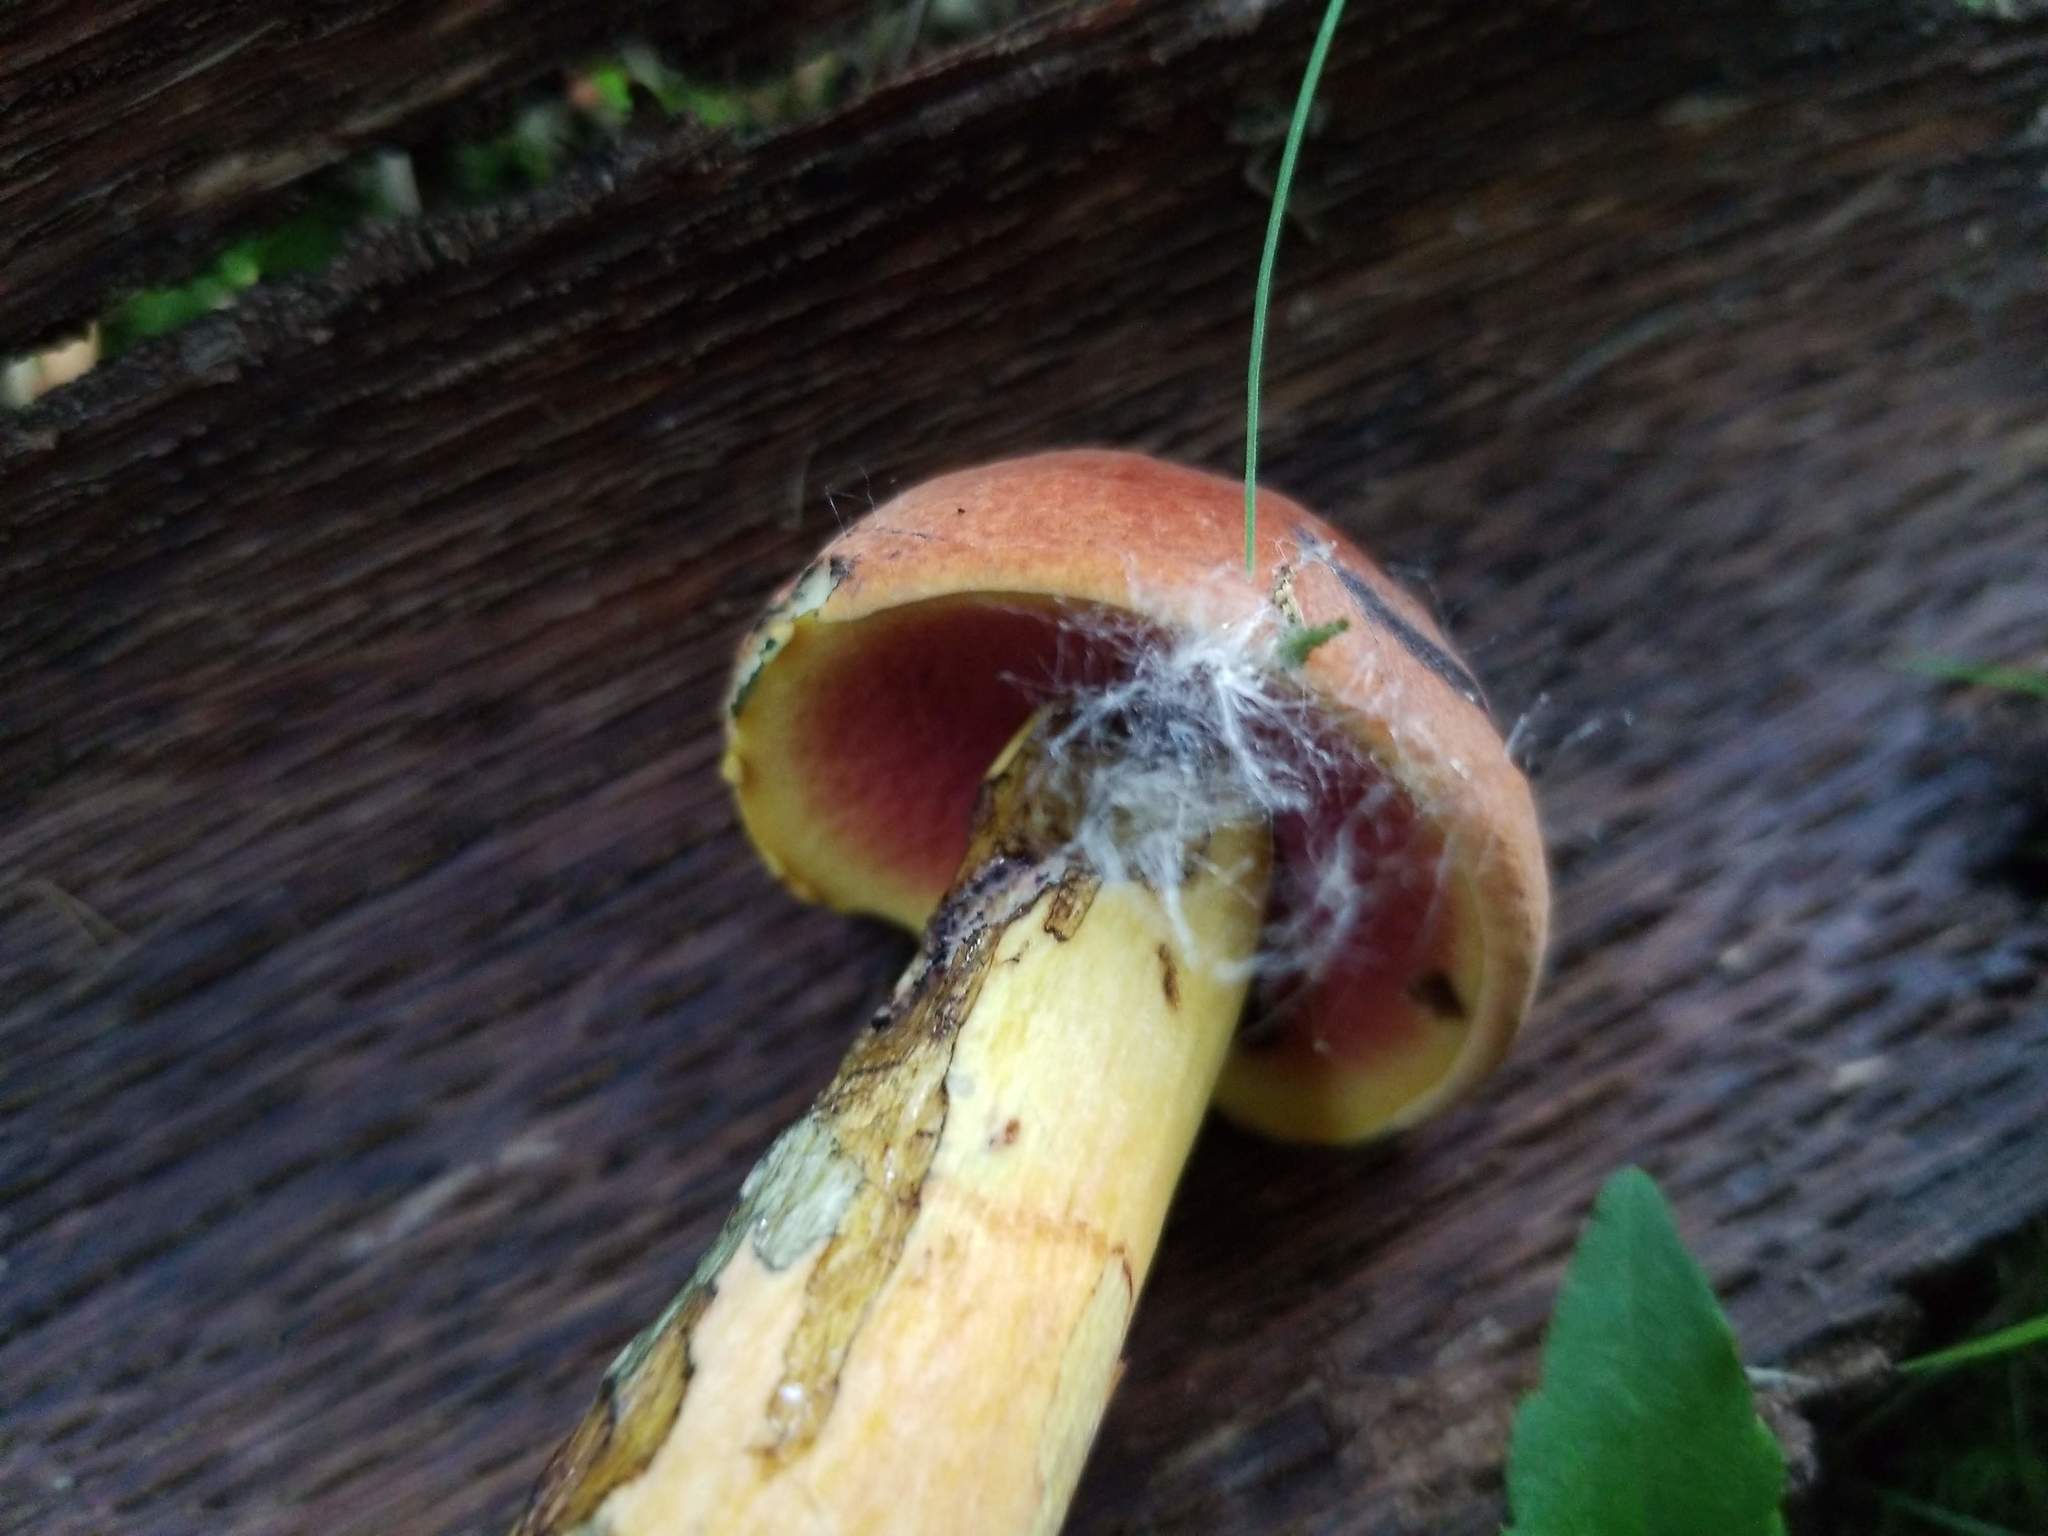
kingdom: Fungi
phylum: Basidiomycota
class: Agaricomycetes
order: Boletales
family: Boletaceae
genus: Neoboletus
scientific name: Neoboletus xanthopus
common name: False yellow bolete
